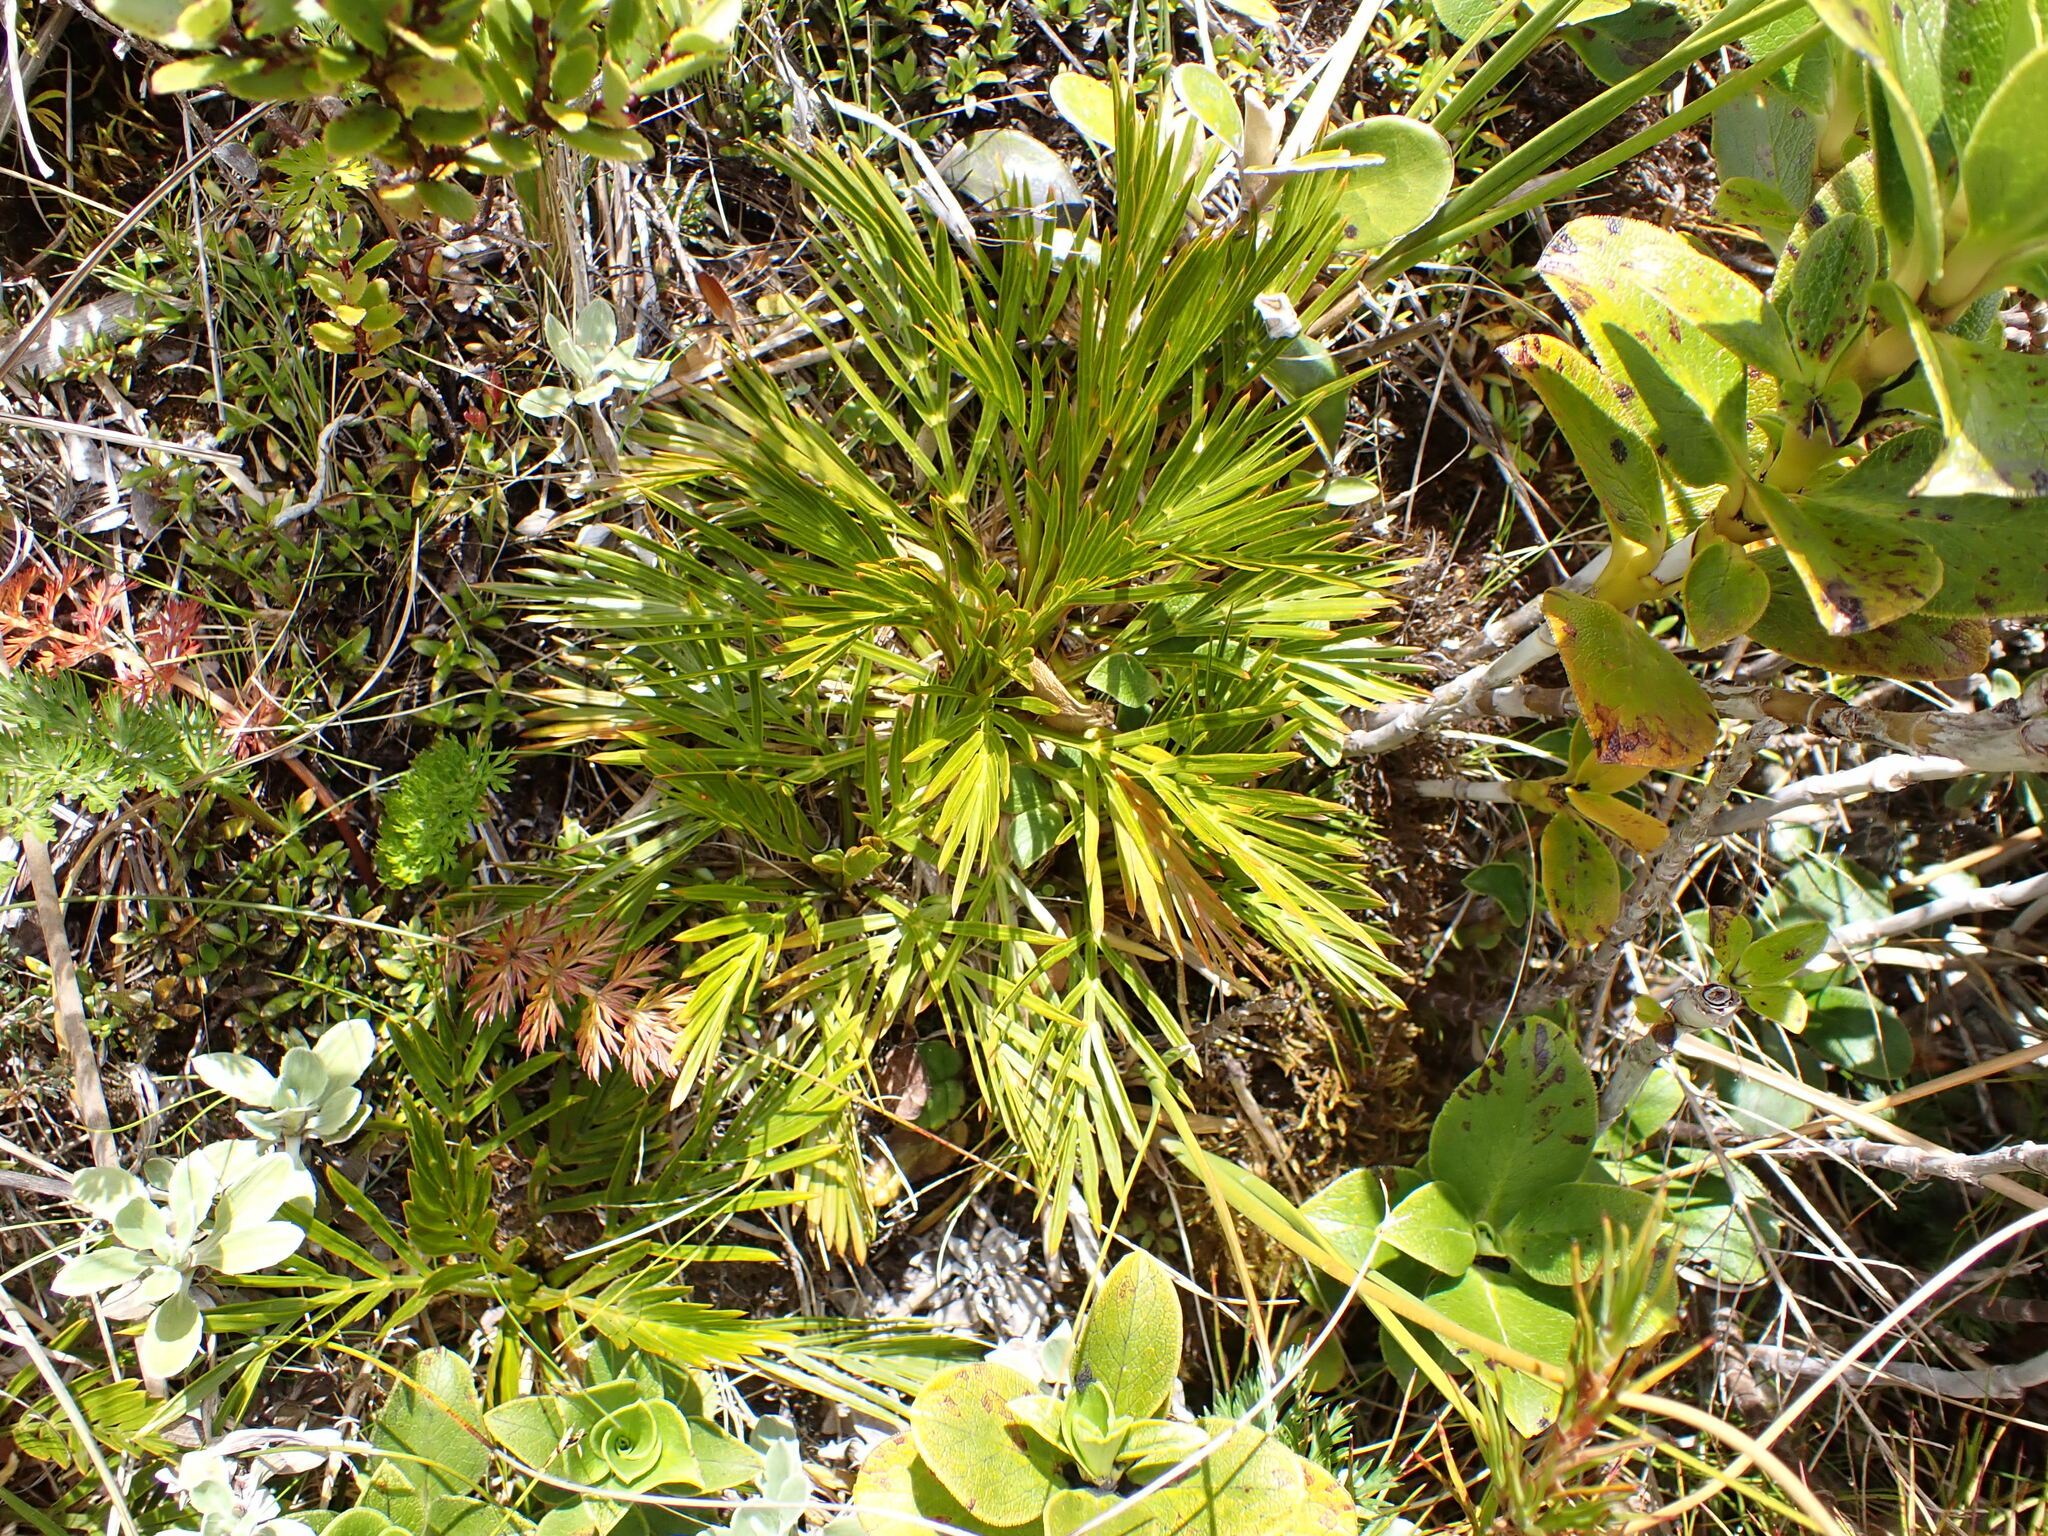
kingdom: Plantae
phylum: Tracheophyta
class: Magnoliopsida
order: Apiales
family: Apiaceae
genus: Aciphylla
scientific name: Aciphylla similis
